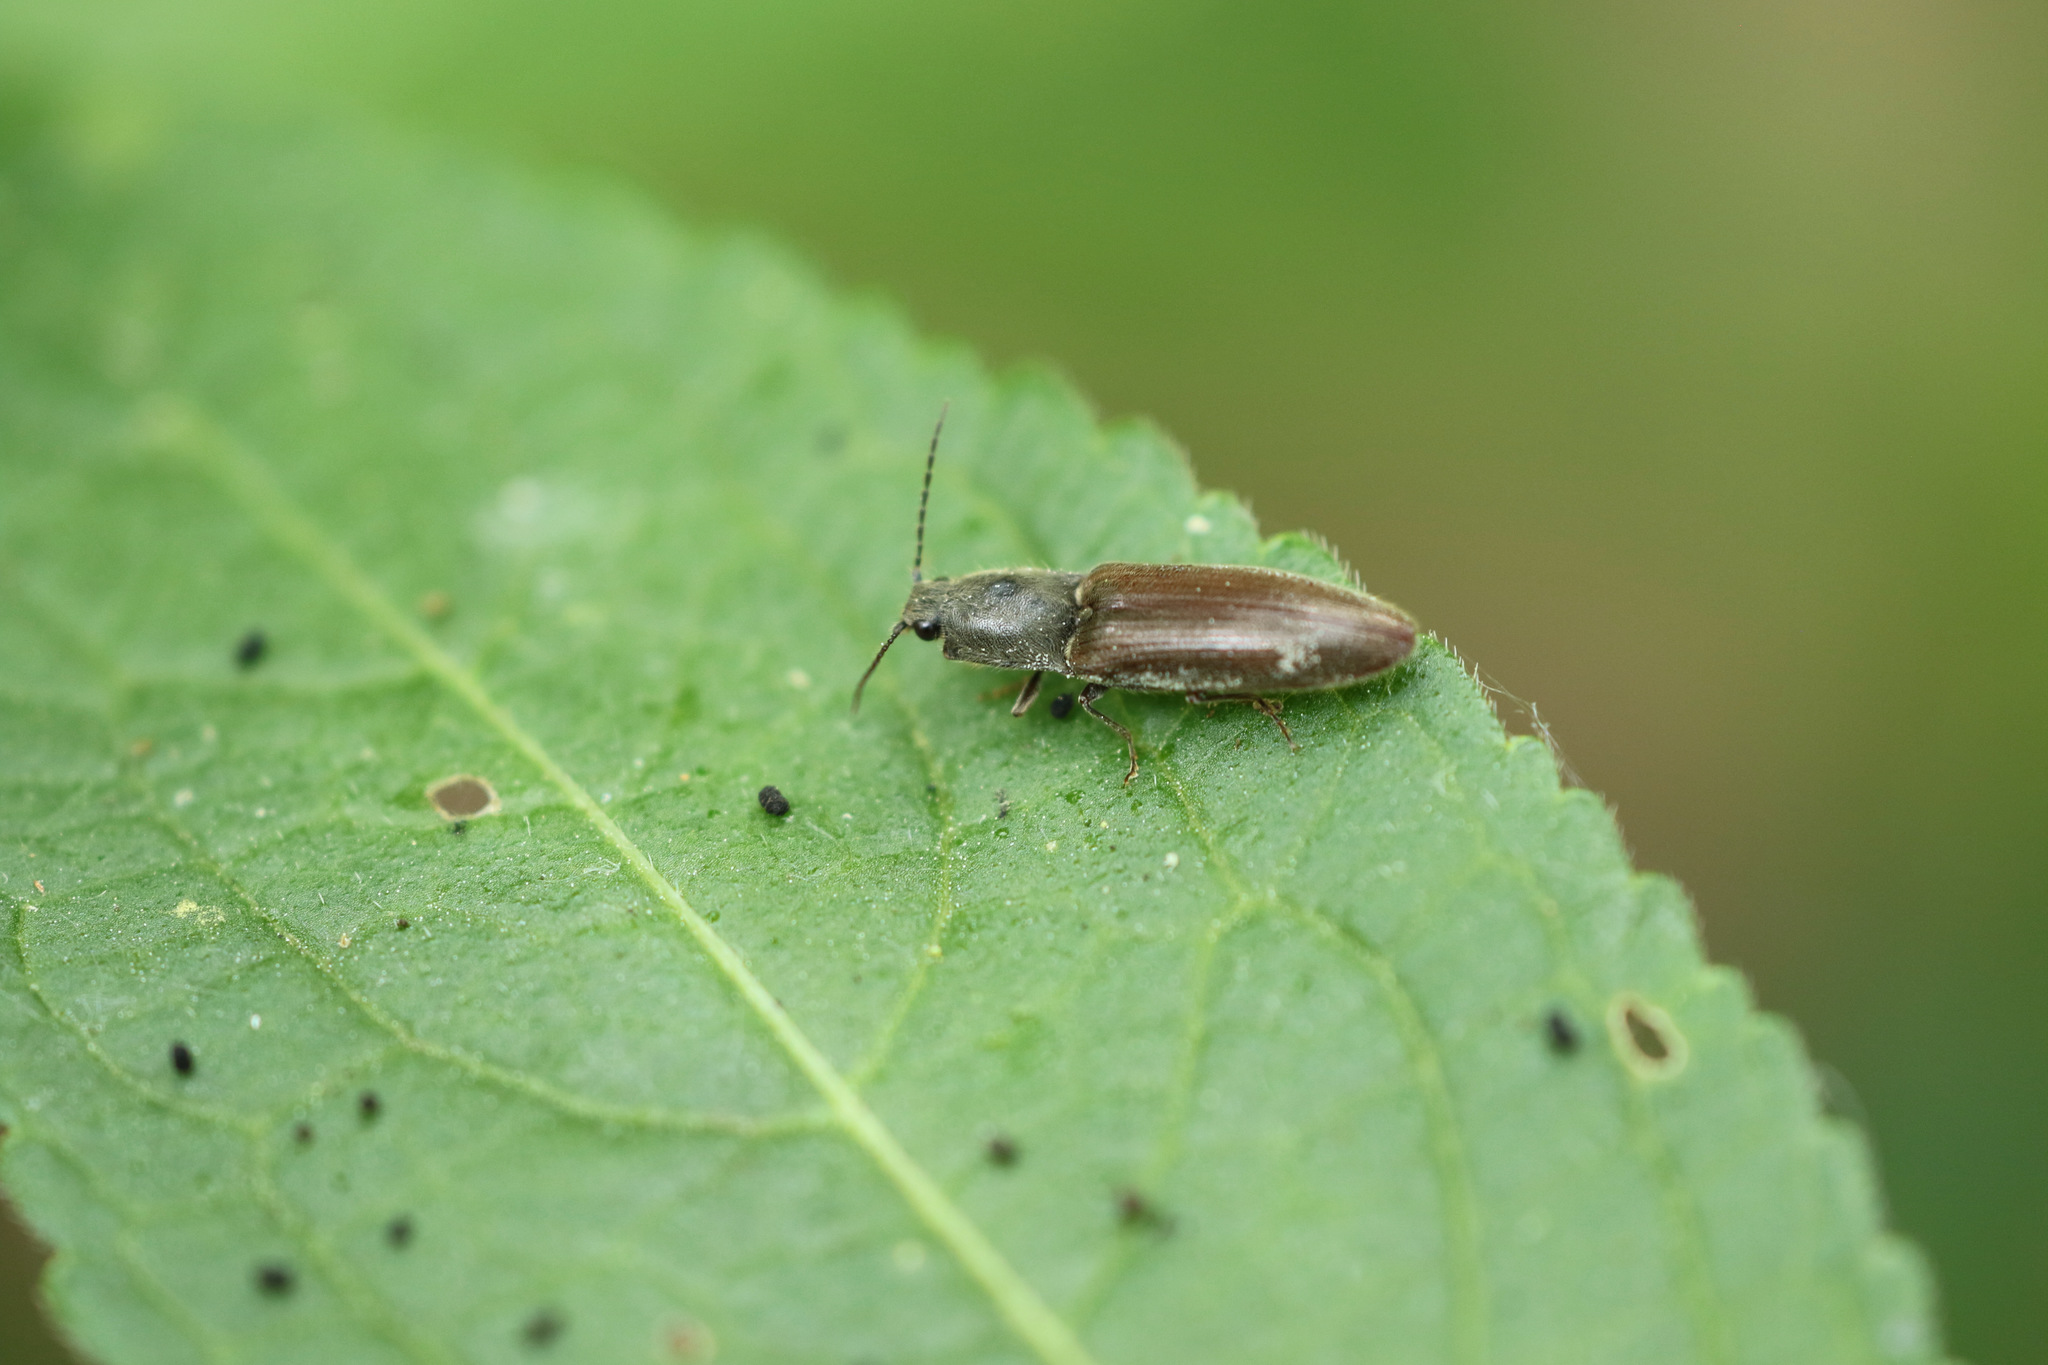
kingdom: Animalia
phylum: Arthropoda
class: Insecta
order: Coleoptera
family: Elateridae
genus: Athous
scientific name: Athous haemorrhoidalis
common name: Red-brown click beetle
